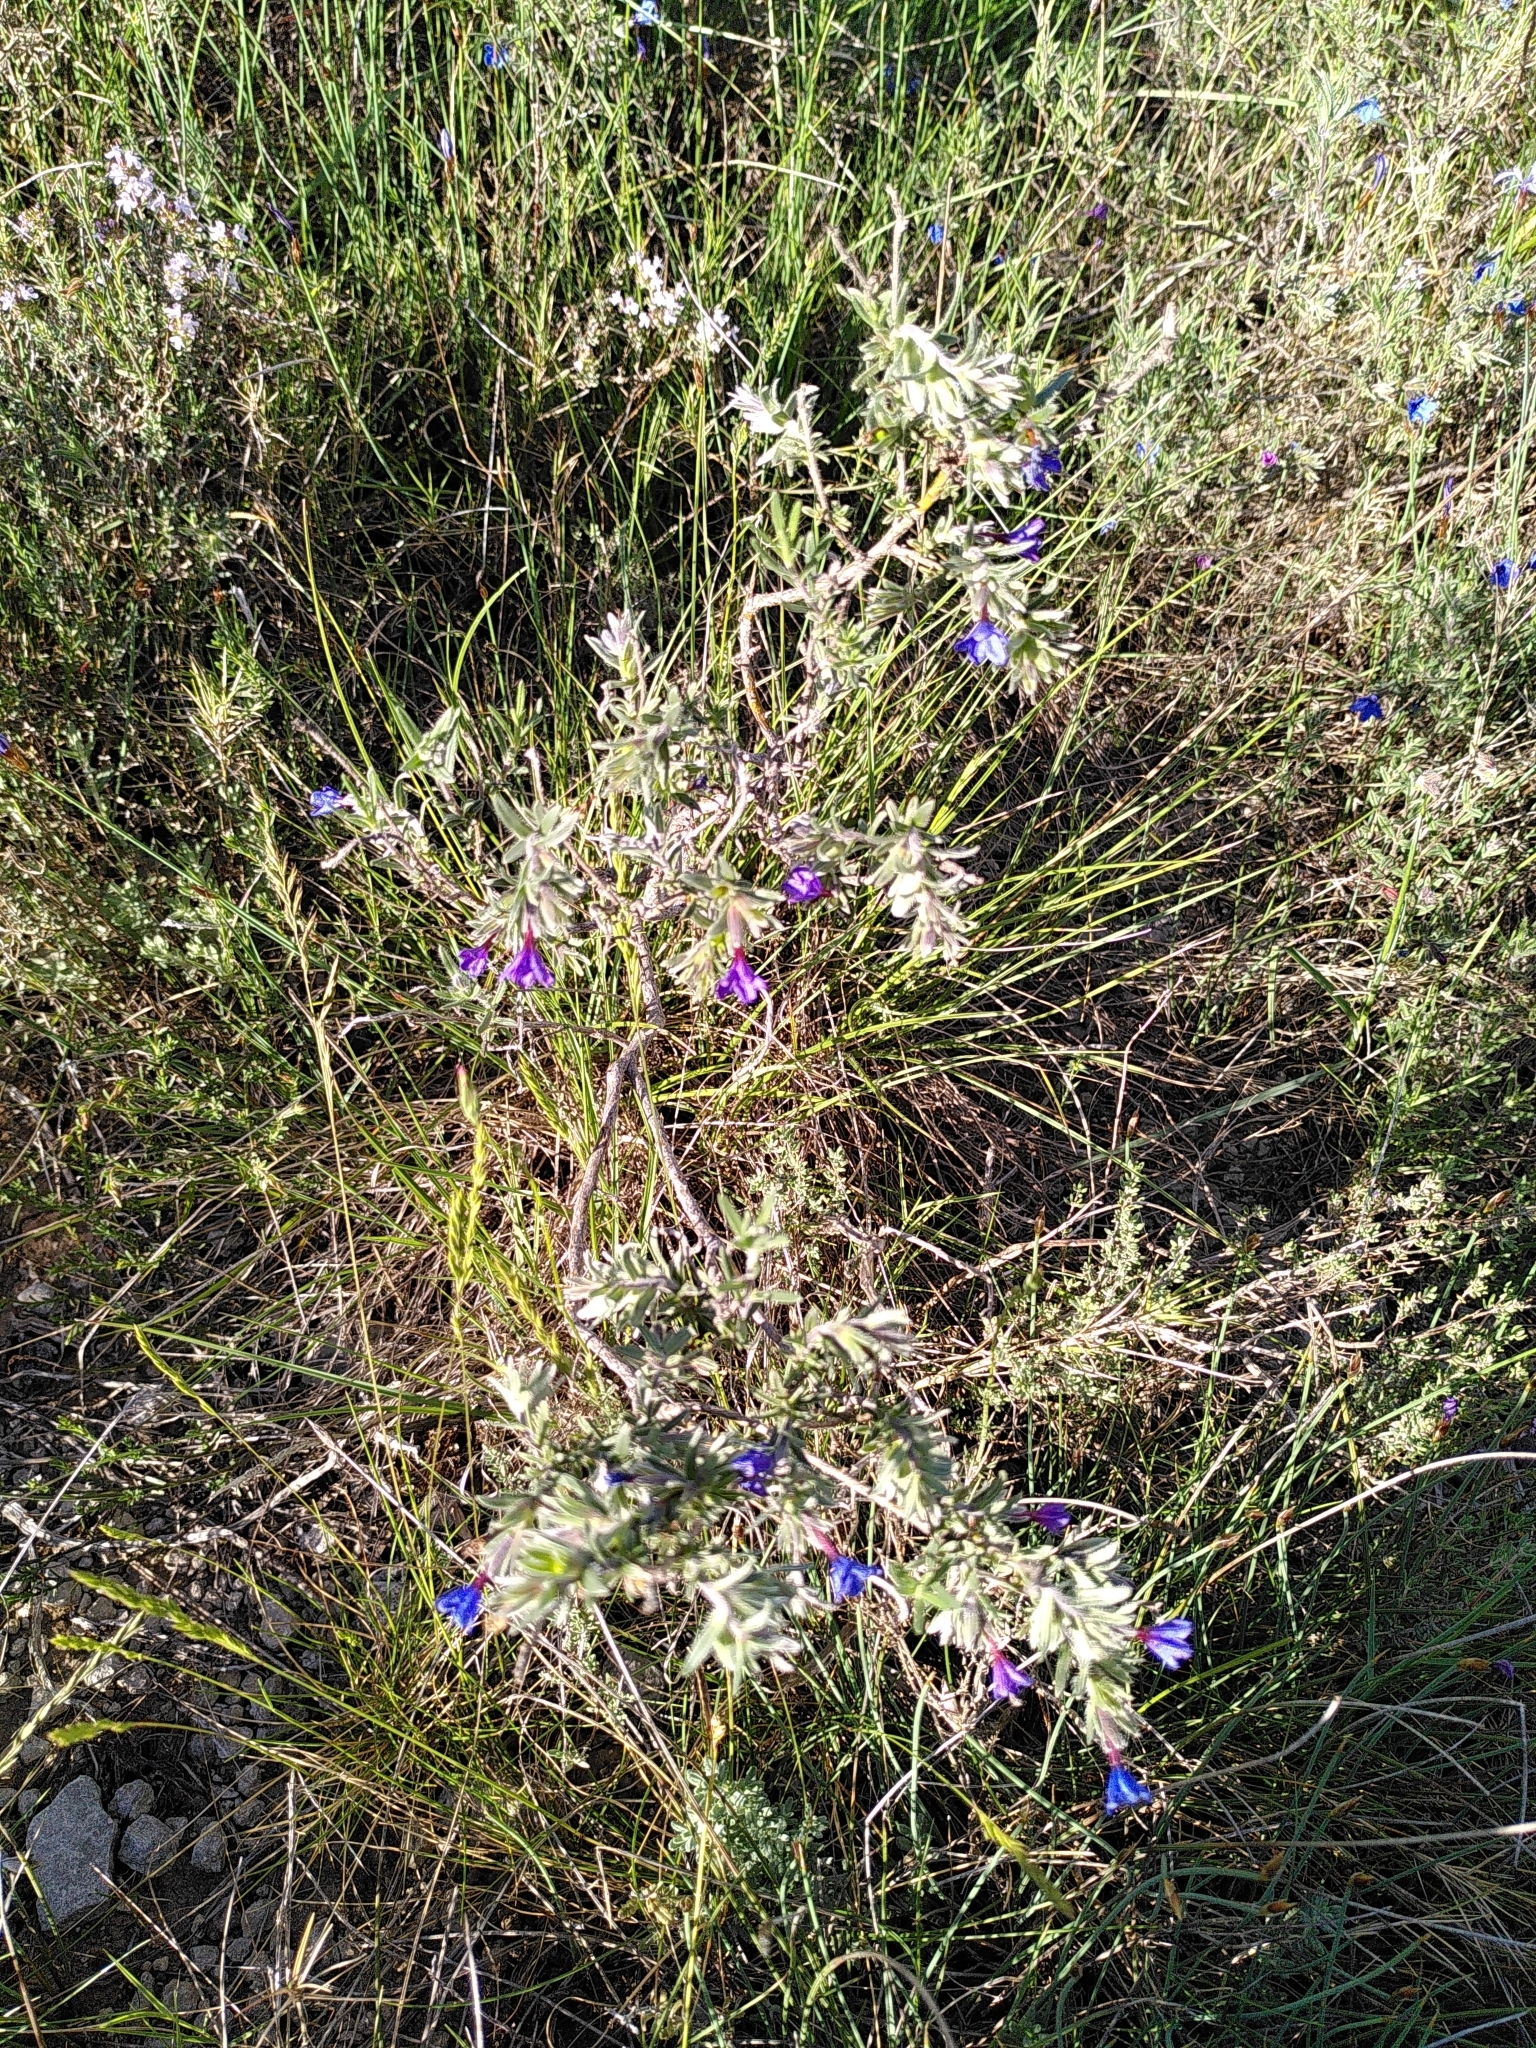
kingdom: Plantae
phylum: Tracheophyta
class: Magnoliopsida
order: Boraginales
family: Boraginaceae
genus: Lithodora
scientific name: Lithodora fruticosa
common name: Shrubby gromwell
